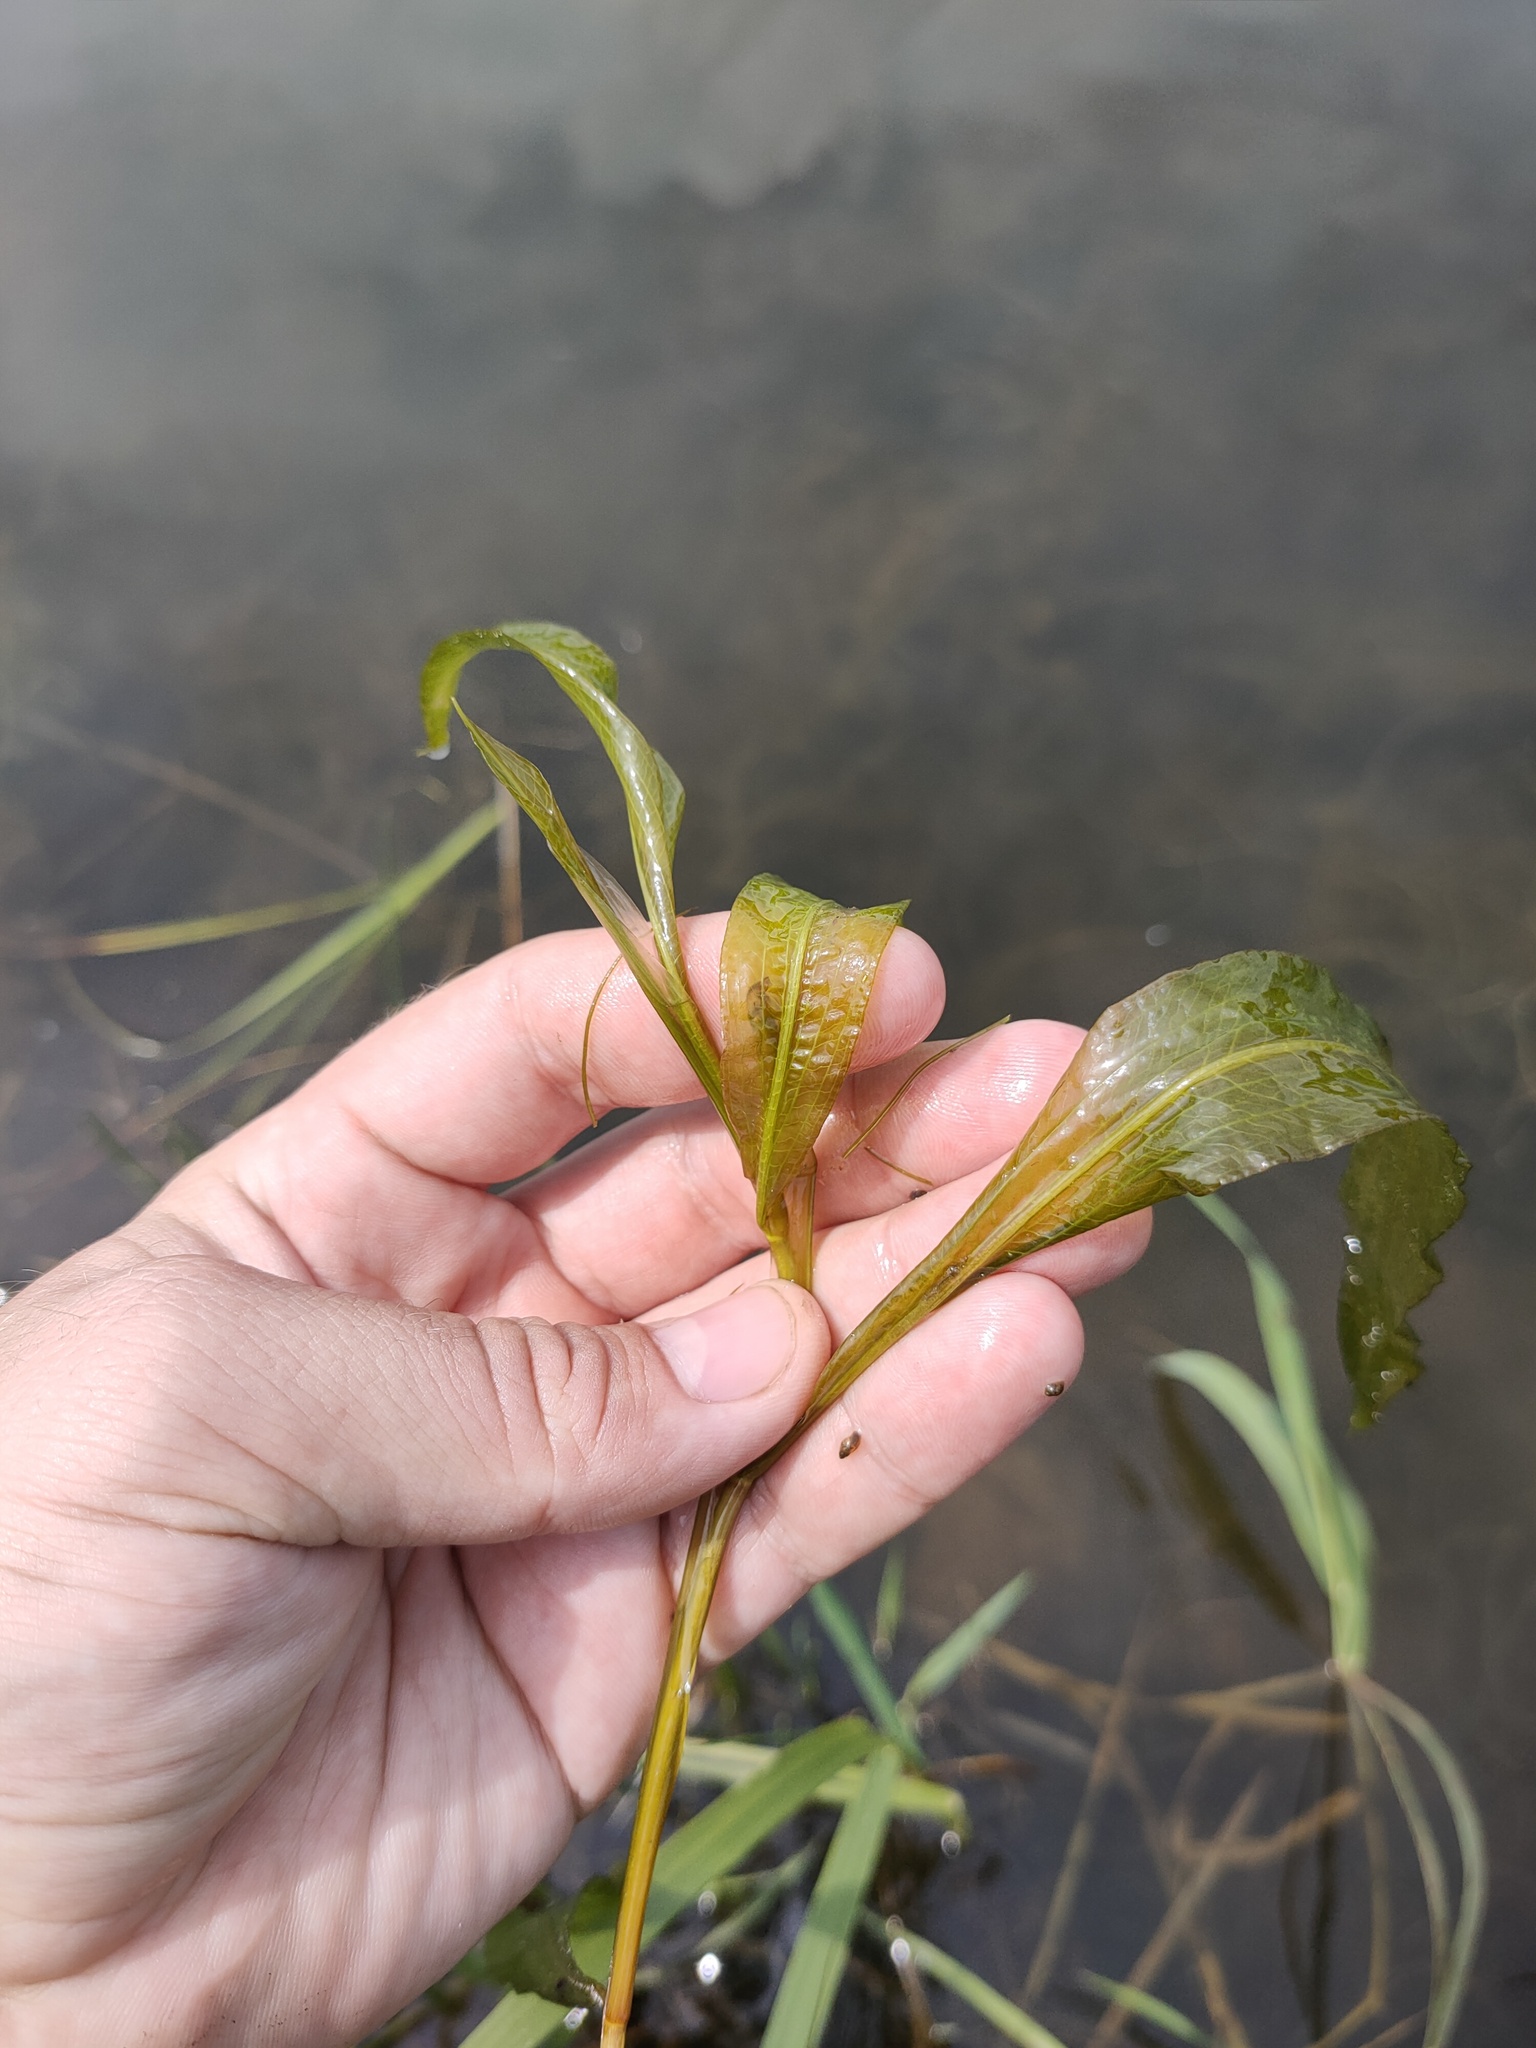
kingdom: Plantae
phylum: Tracheophyta
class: Liliopsida
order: Alismatales
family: Potamogetonaceae
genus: Potamogeton
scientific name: Potamogeton lucens
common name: Shining pondweed
